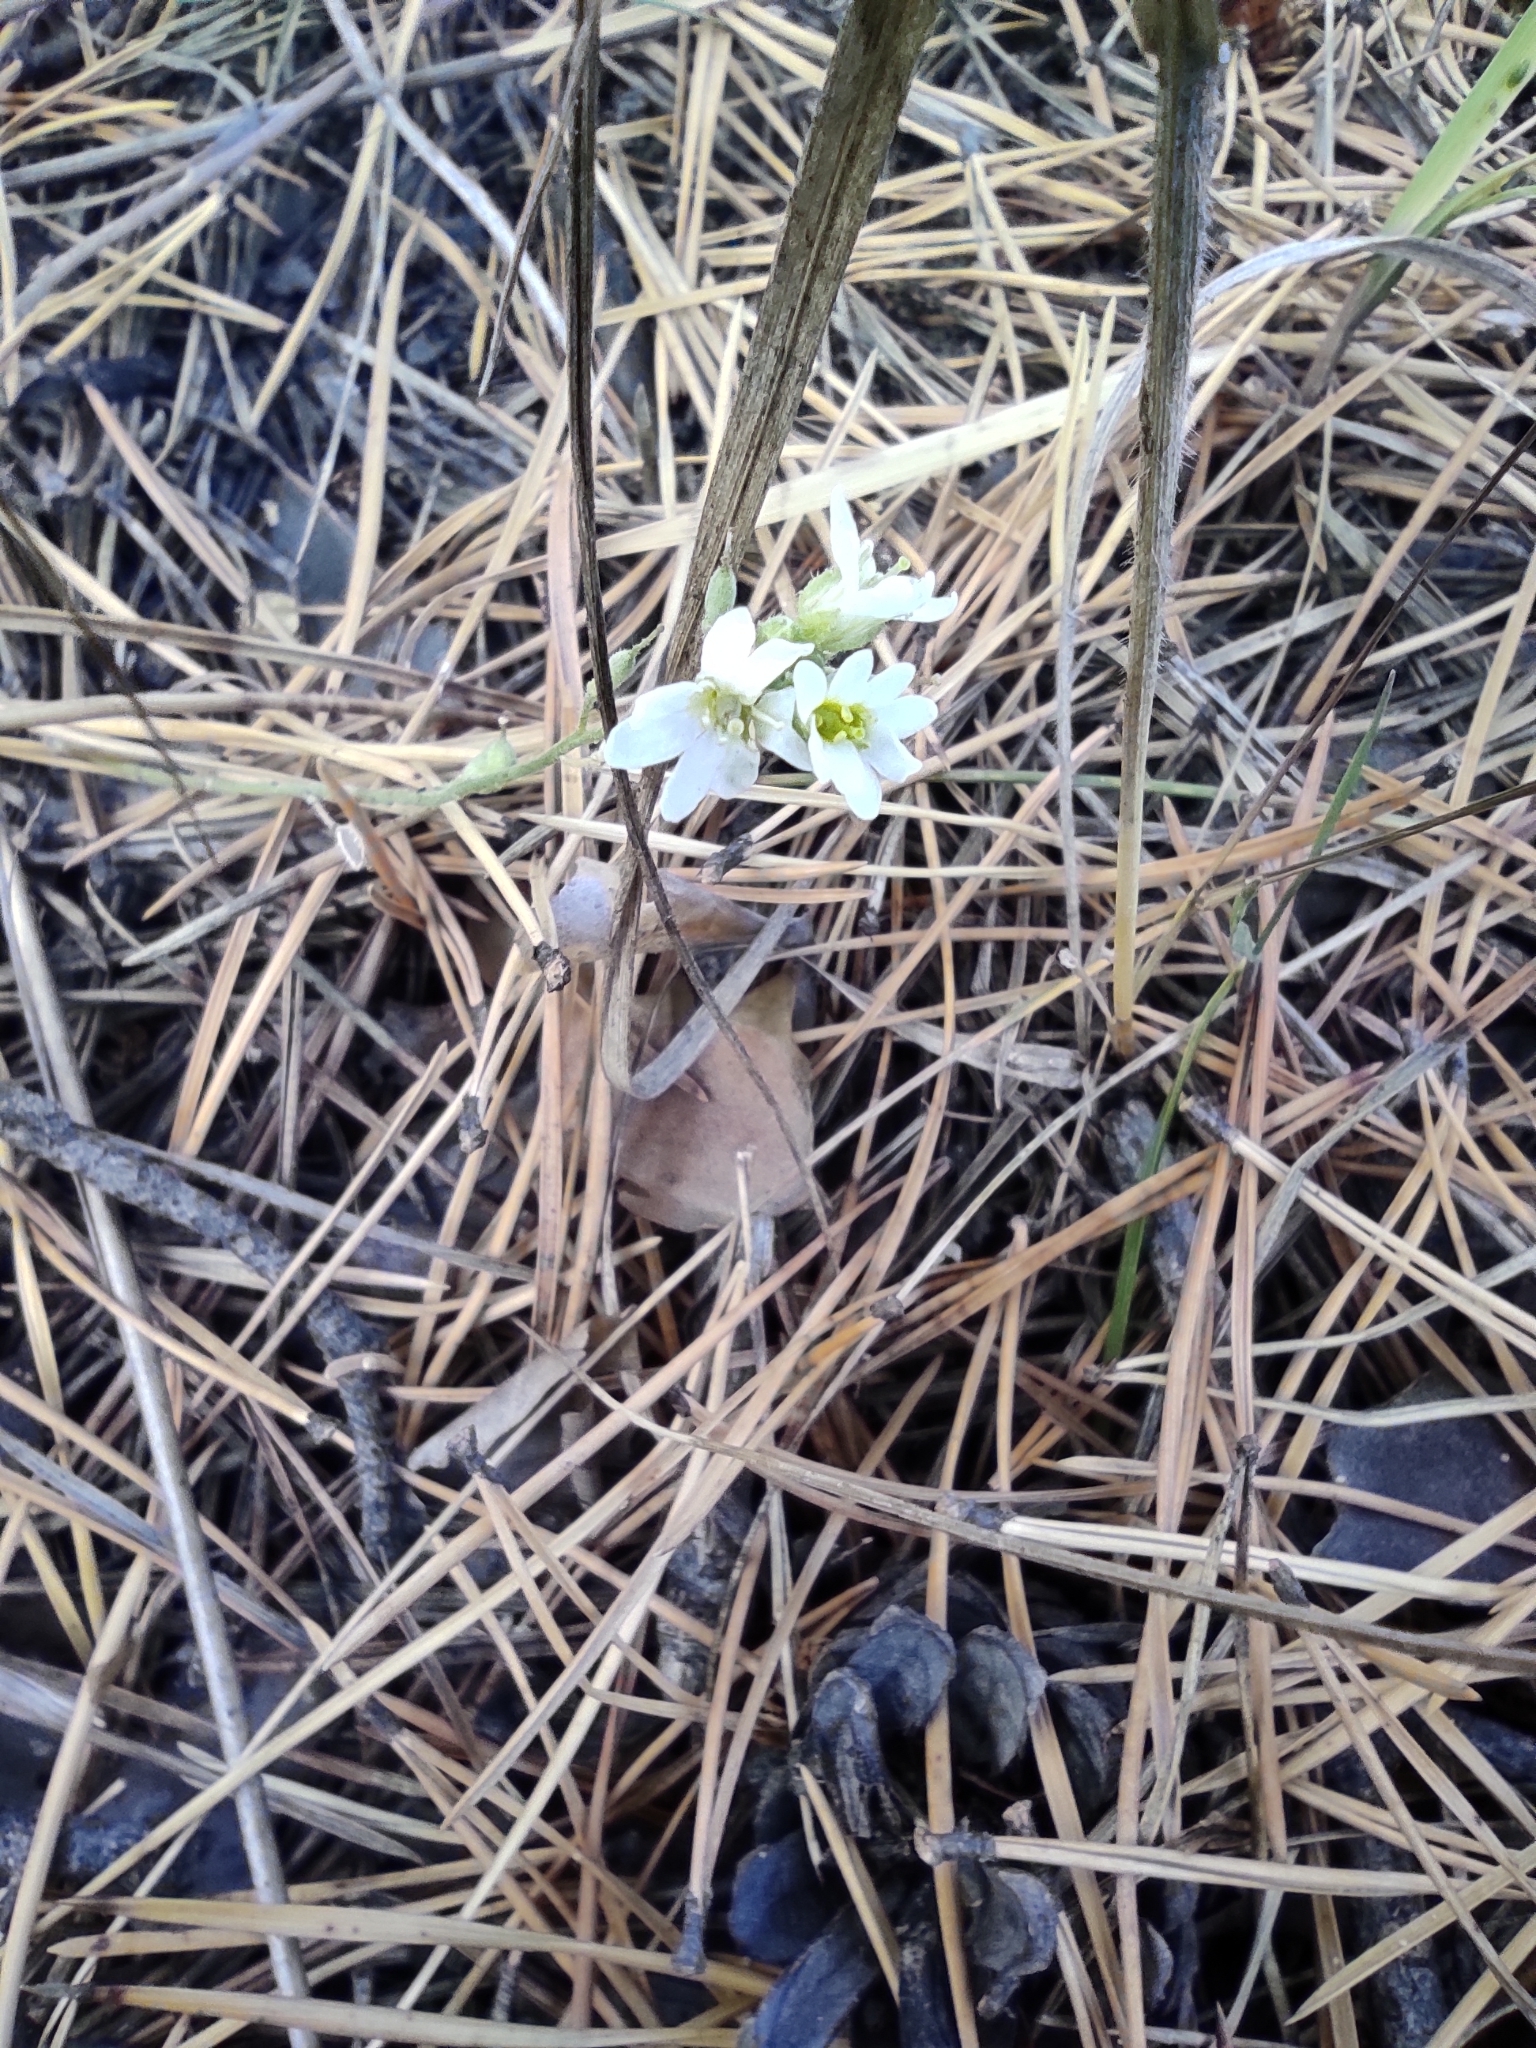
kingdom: Plantae
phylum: Tracheophyta
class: Magnoliopsida
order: Brassicales
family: Brassicaceae
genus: Berteroa
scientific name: Berteroa incana
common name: Hoary alison
